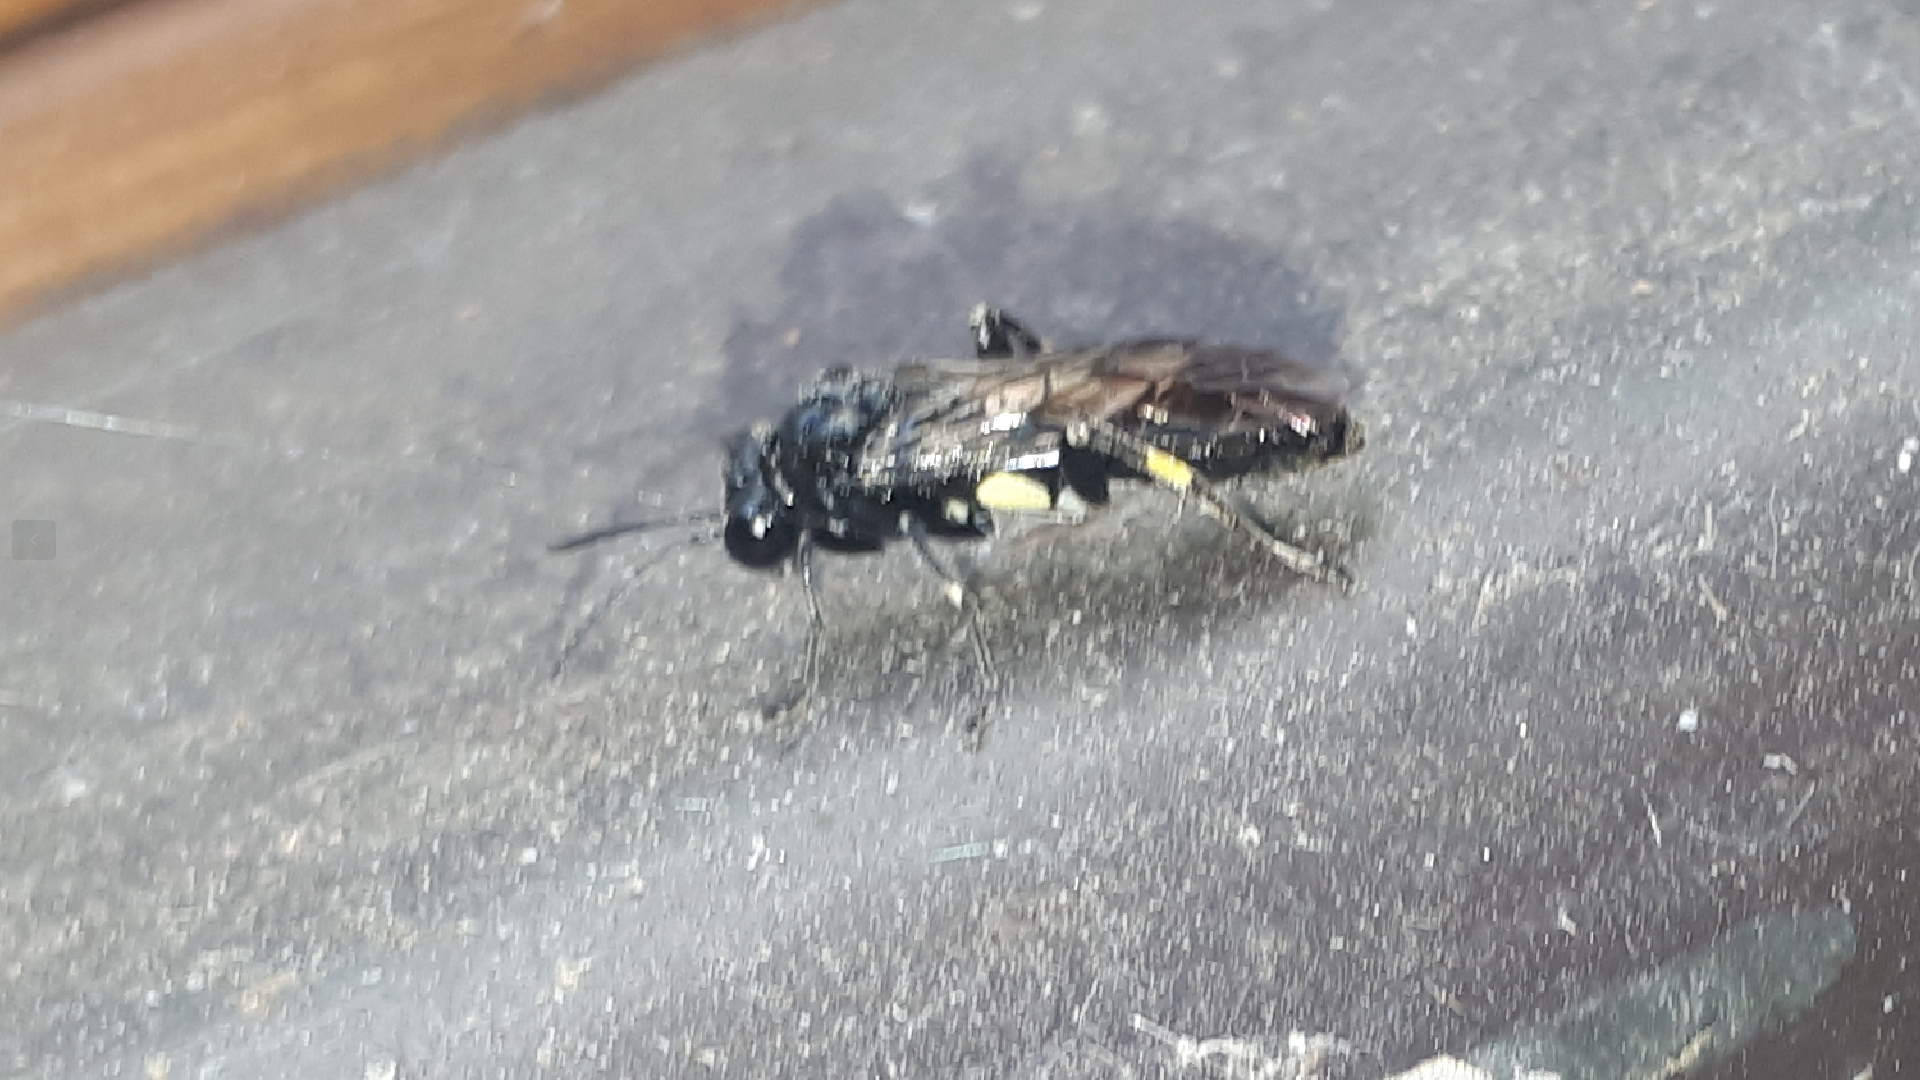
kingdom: Animalia
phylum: Arthropoda
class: Insecta
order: Hymenoptera
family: Tenthredinidae
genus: Macrophya
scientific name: Macrophya ribis
